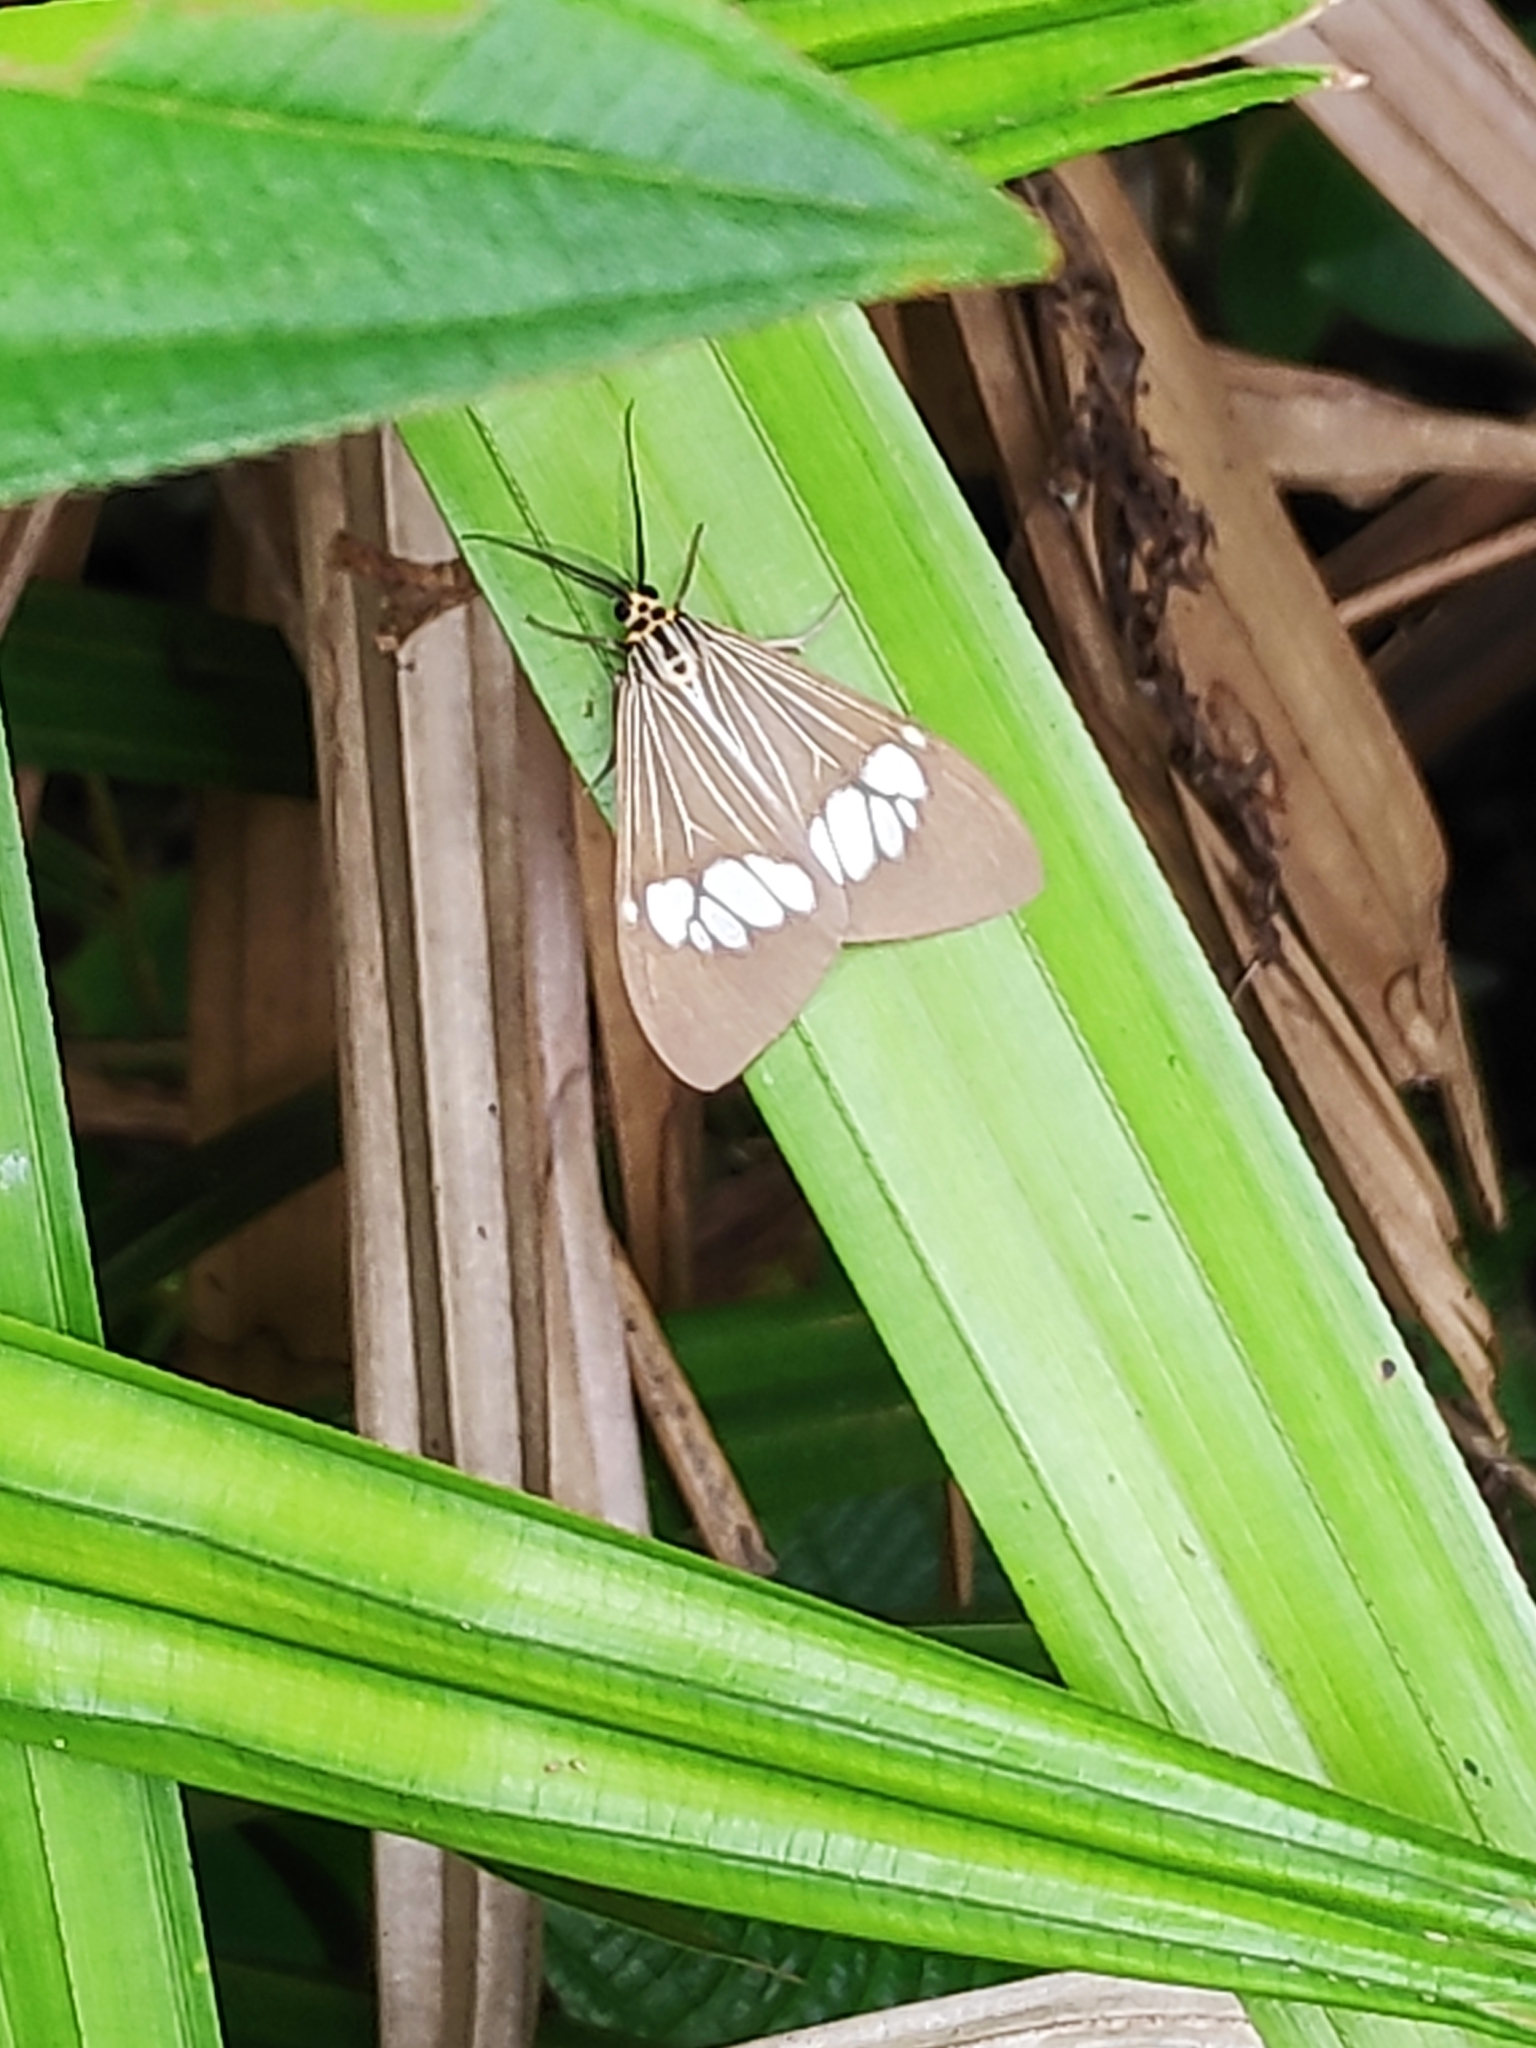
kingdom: Animalia
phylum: Arthropoda
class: Insecta
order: Lepidoptera
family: Erebidae
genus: Nyctemera
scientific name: Nyctemera baulus
